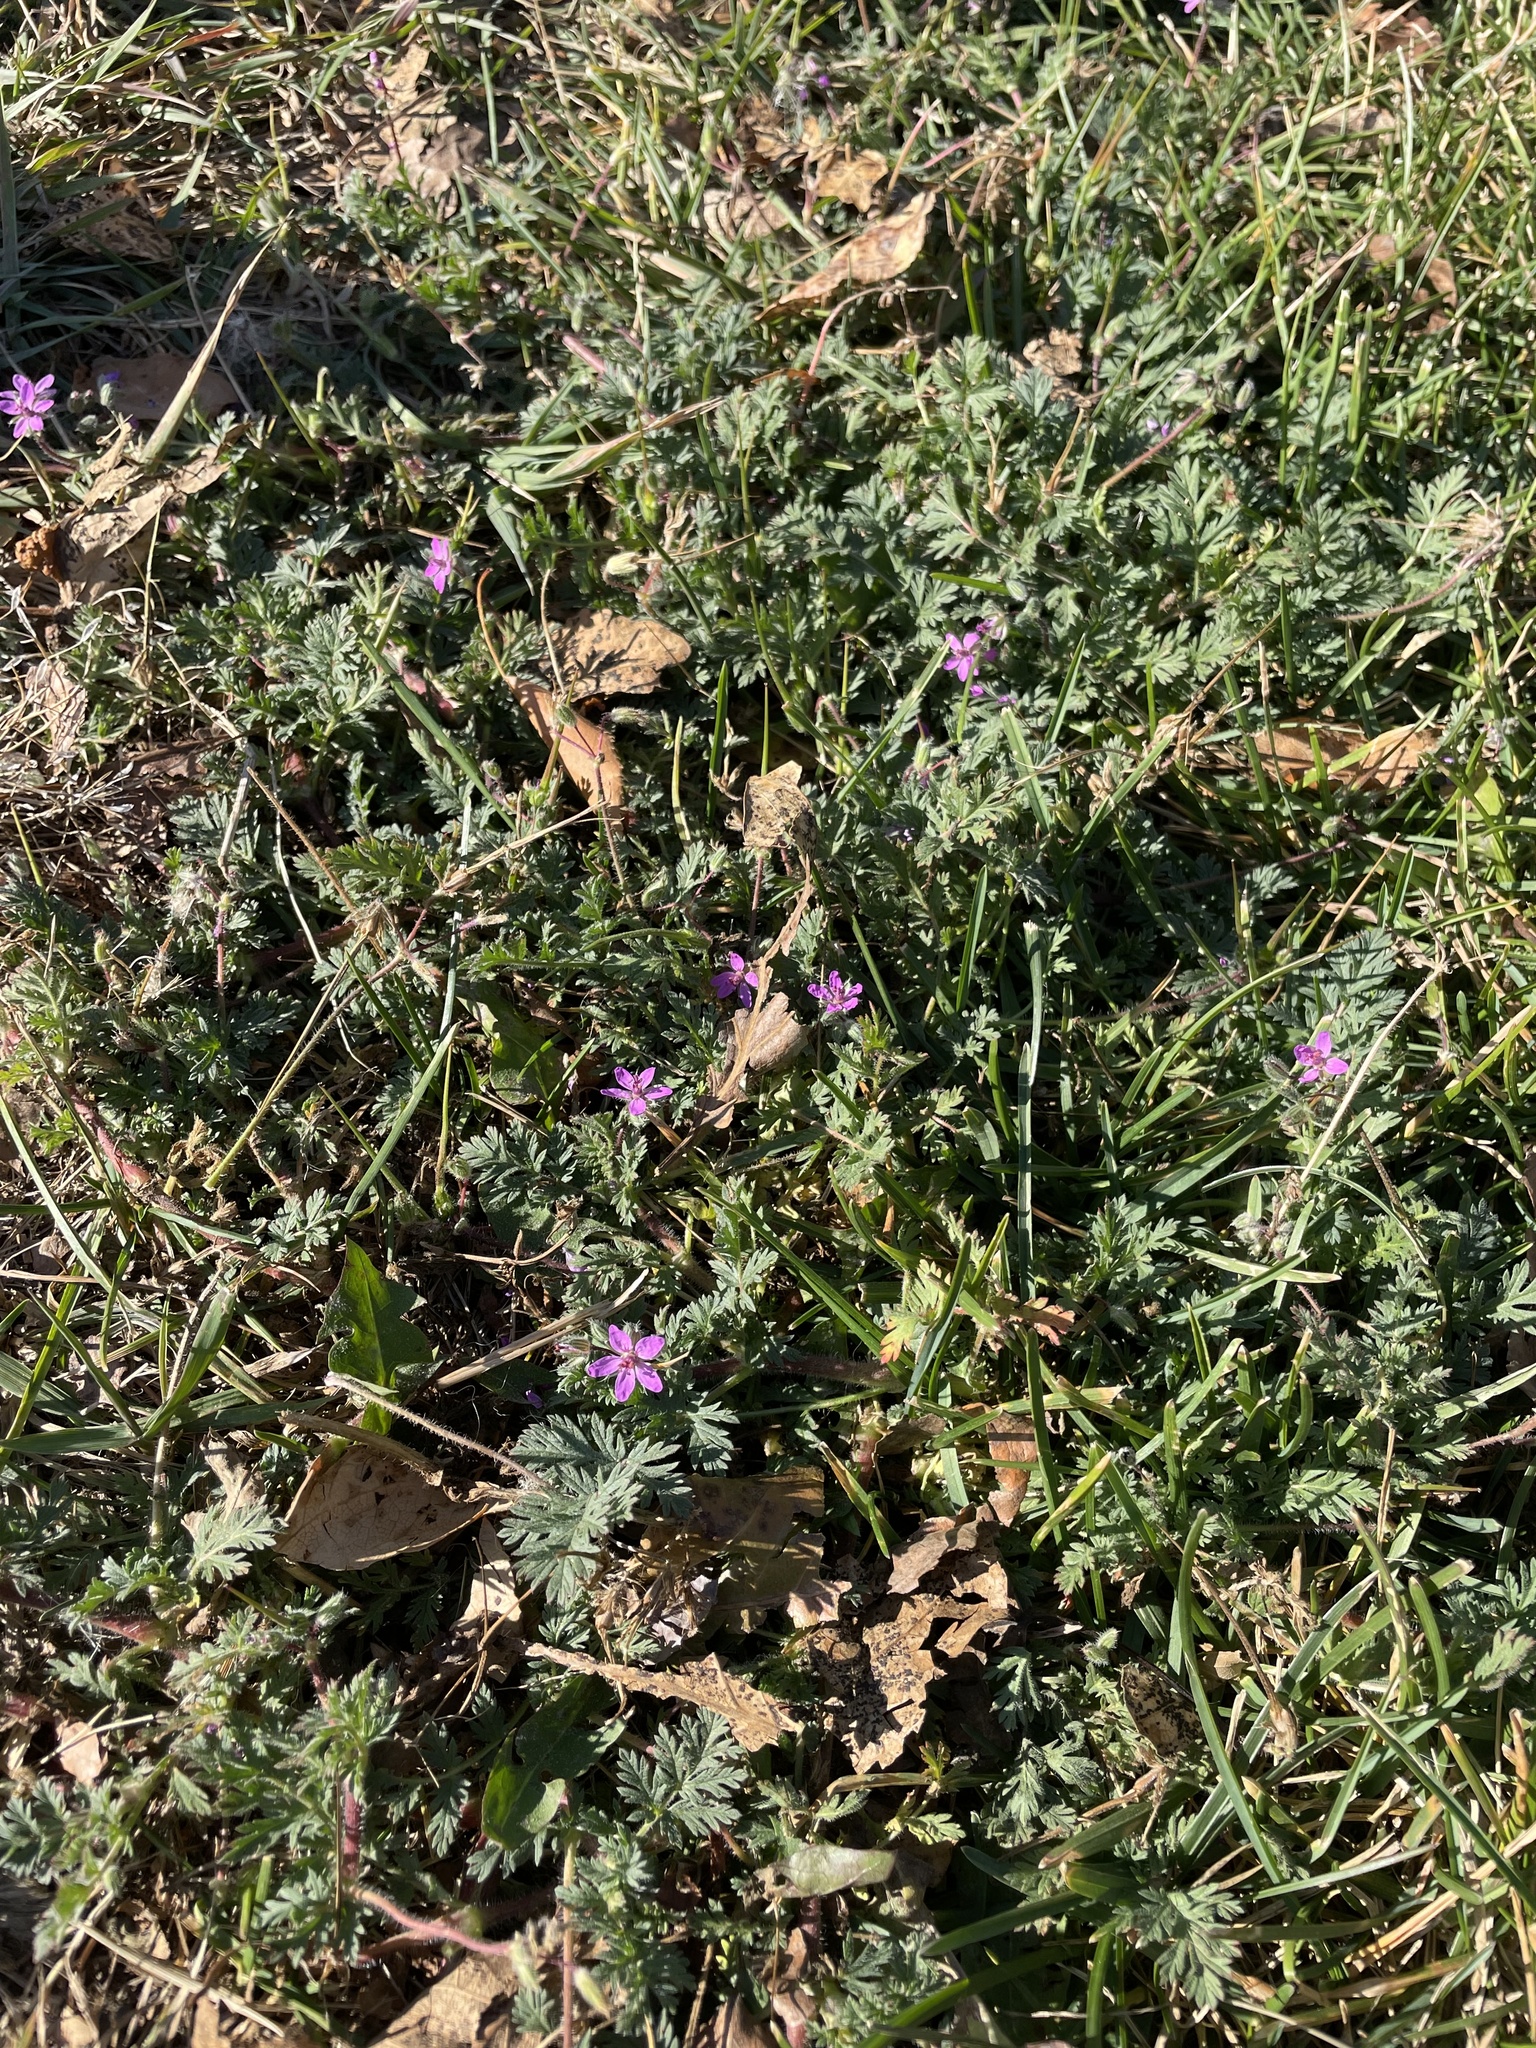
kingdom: Plantae
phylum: Tracheophyta
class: Magnoliopsida
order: Geraniales
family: Geraniaceae
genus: Erodium
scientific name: Erodium cicutarium
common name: Common stork's-bill
